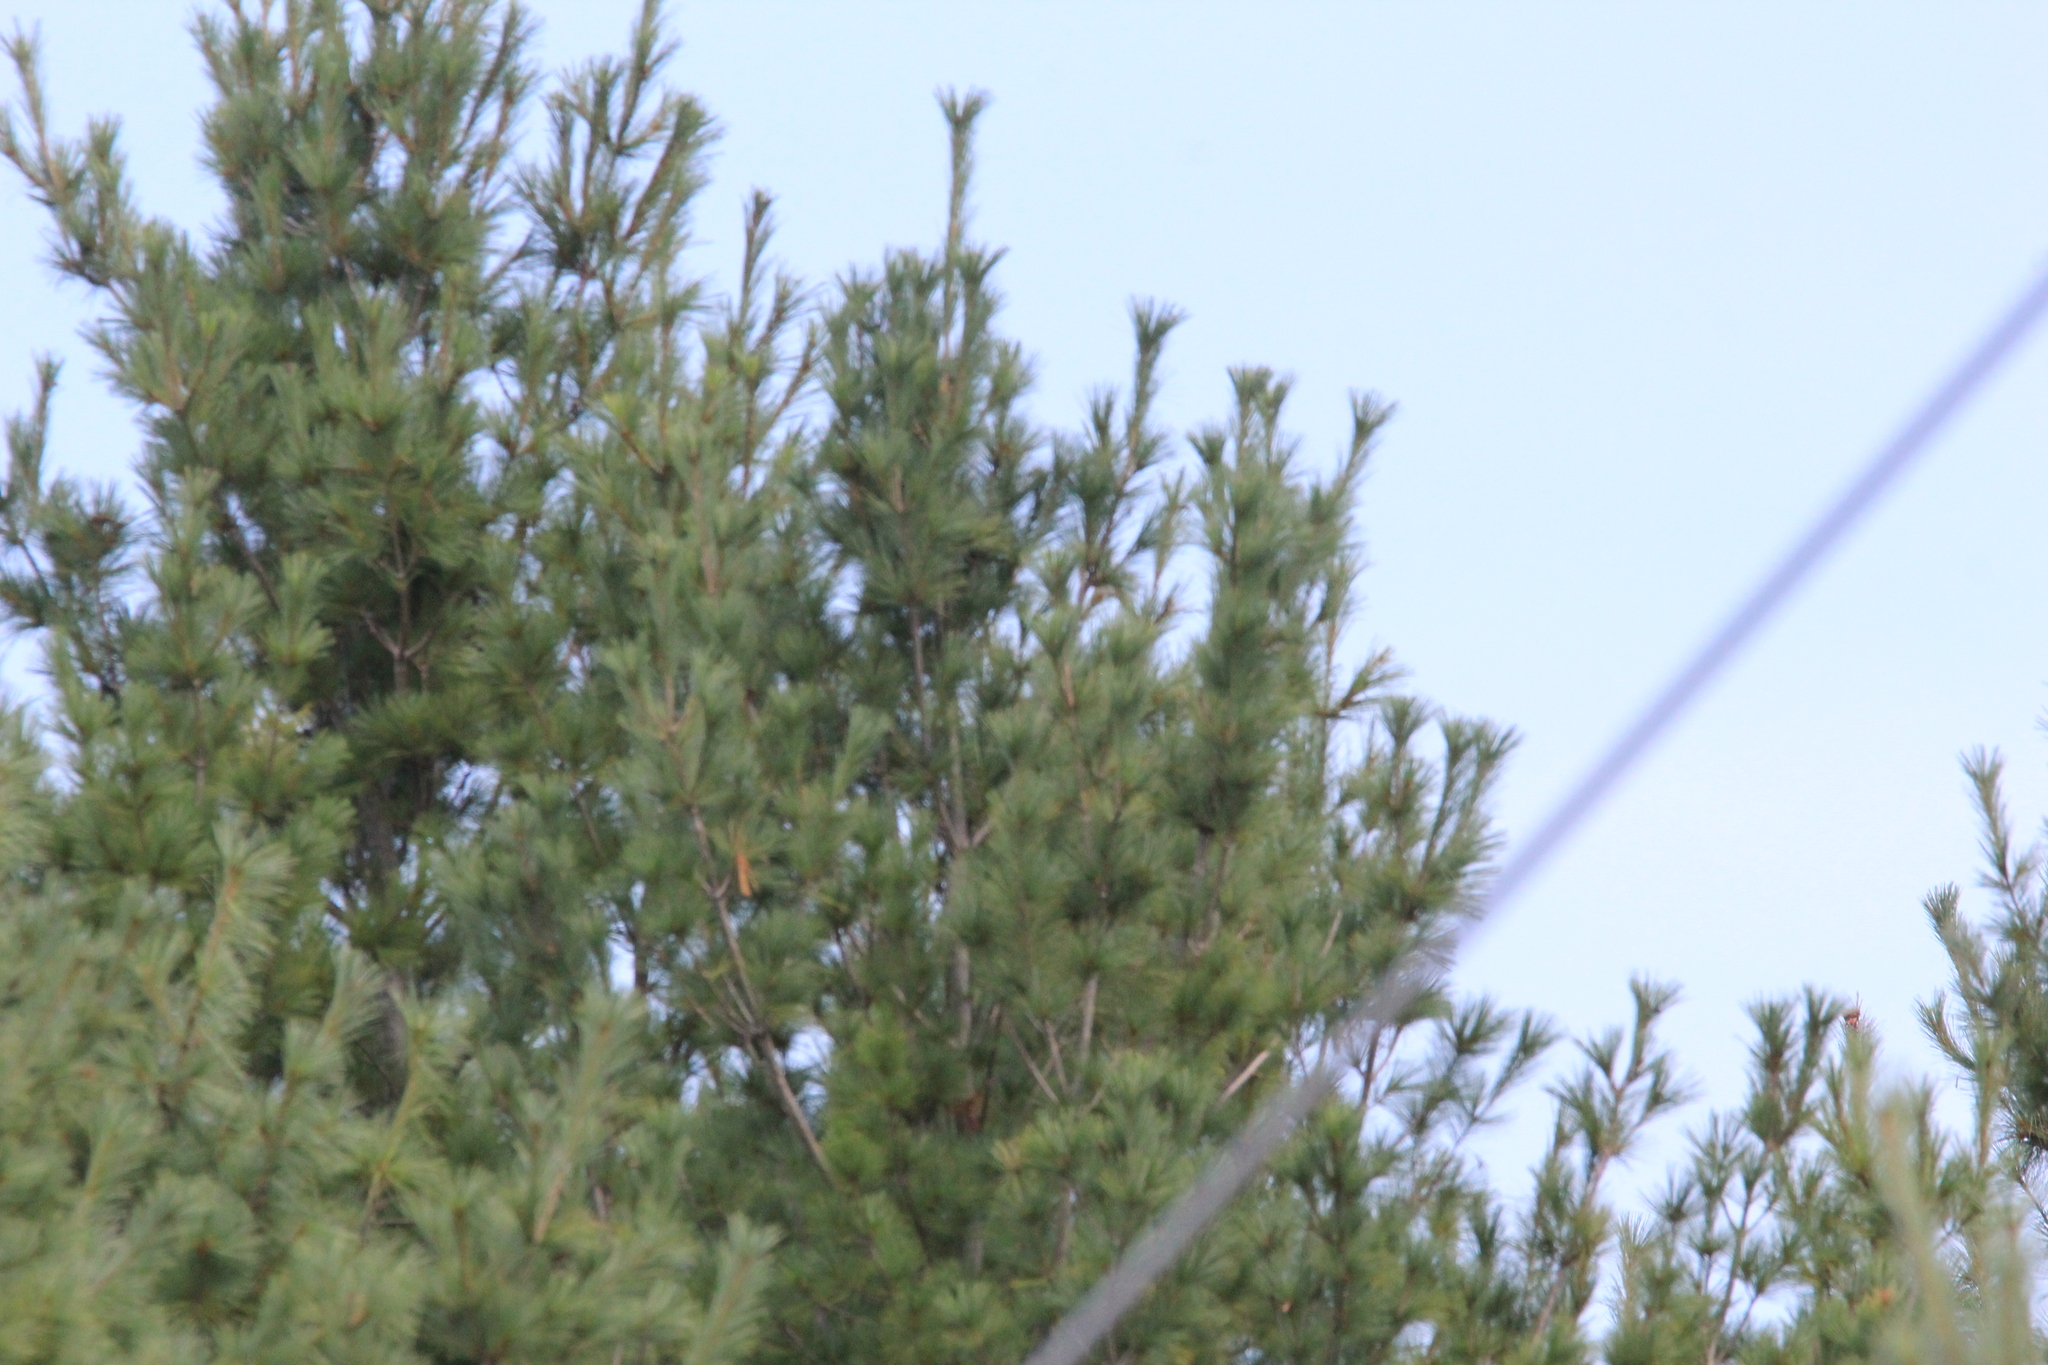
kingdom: Plantae
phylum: Tracheophyta
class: Pinopsida
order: Pinales
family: Pinaceae
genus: Pinus
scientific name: Pinus strobus
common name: Weymouth pine
